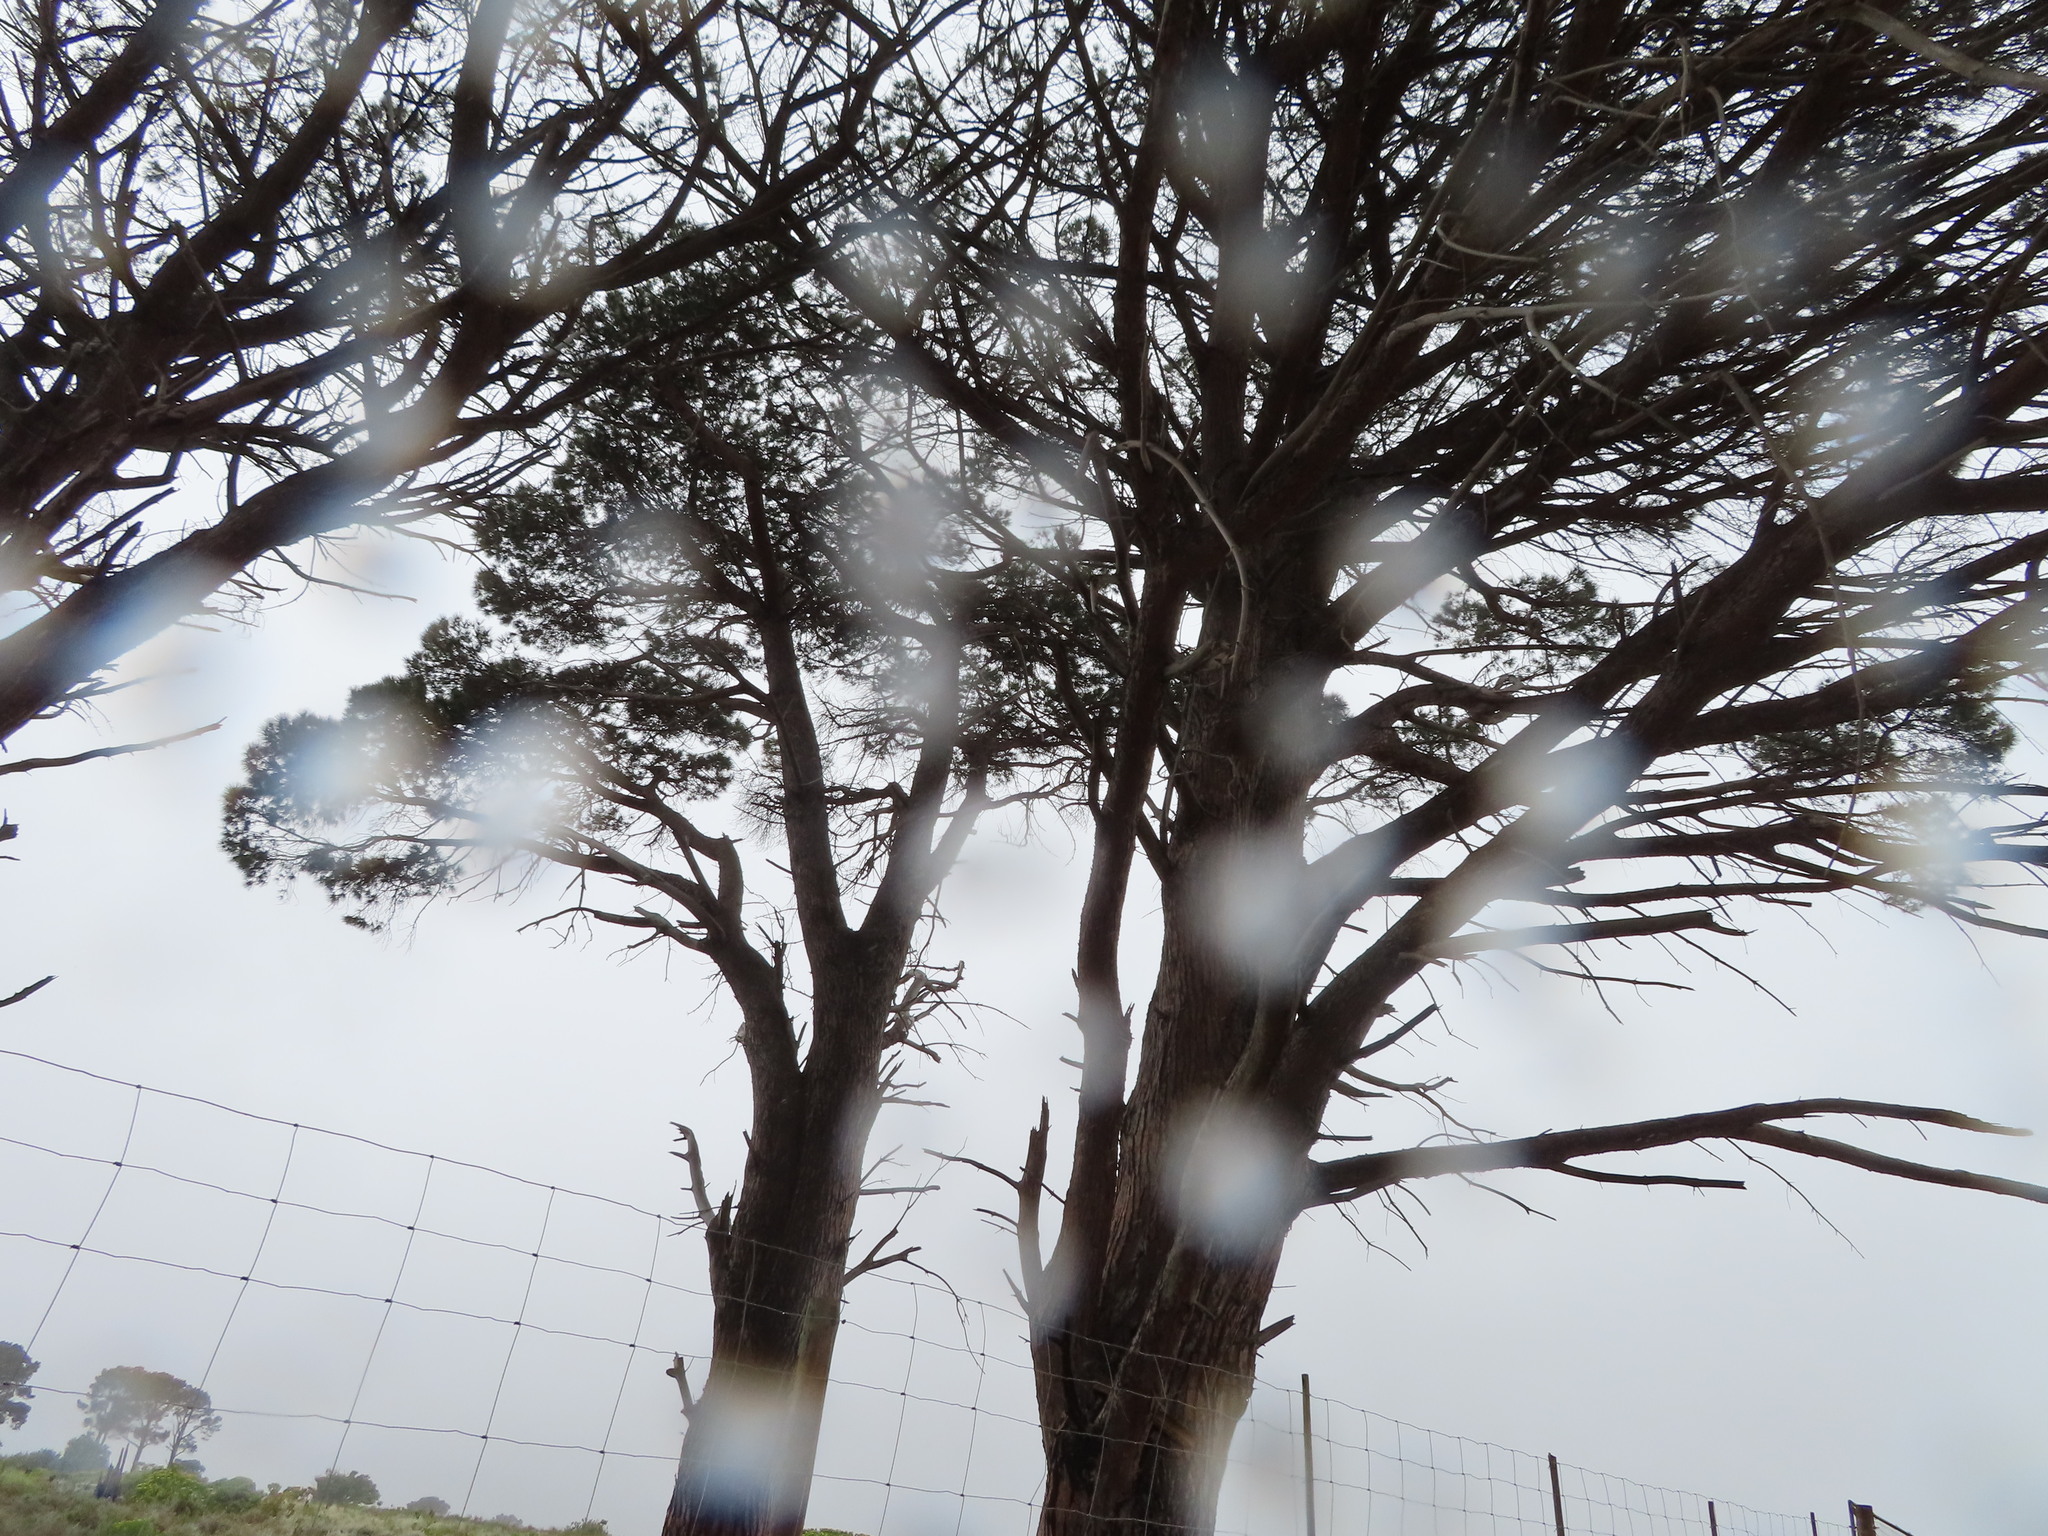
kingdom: Plantae
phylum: Tracheophyta
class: Pinopsida
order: Pinales
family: Pinaceae
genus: Pinus
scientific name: Pinus pinea
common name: Italian stone pine
